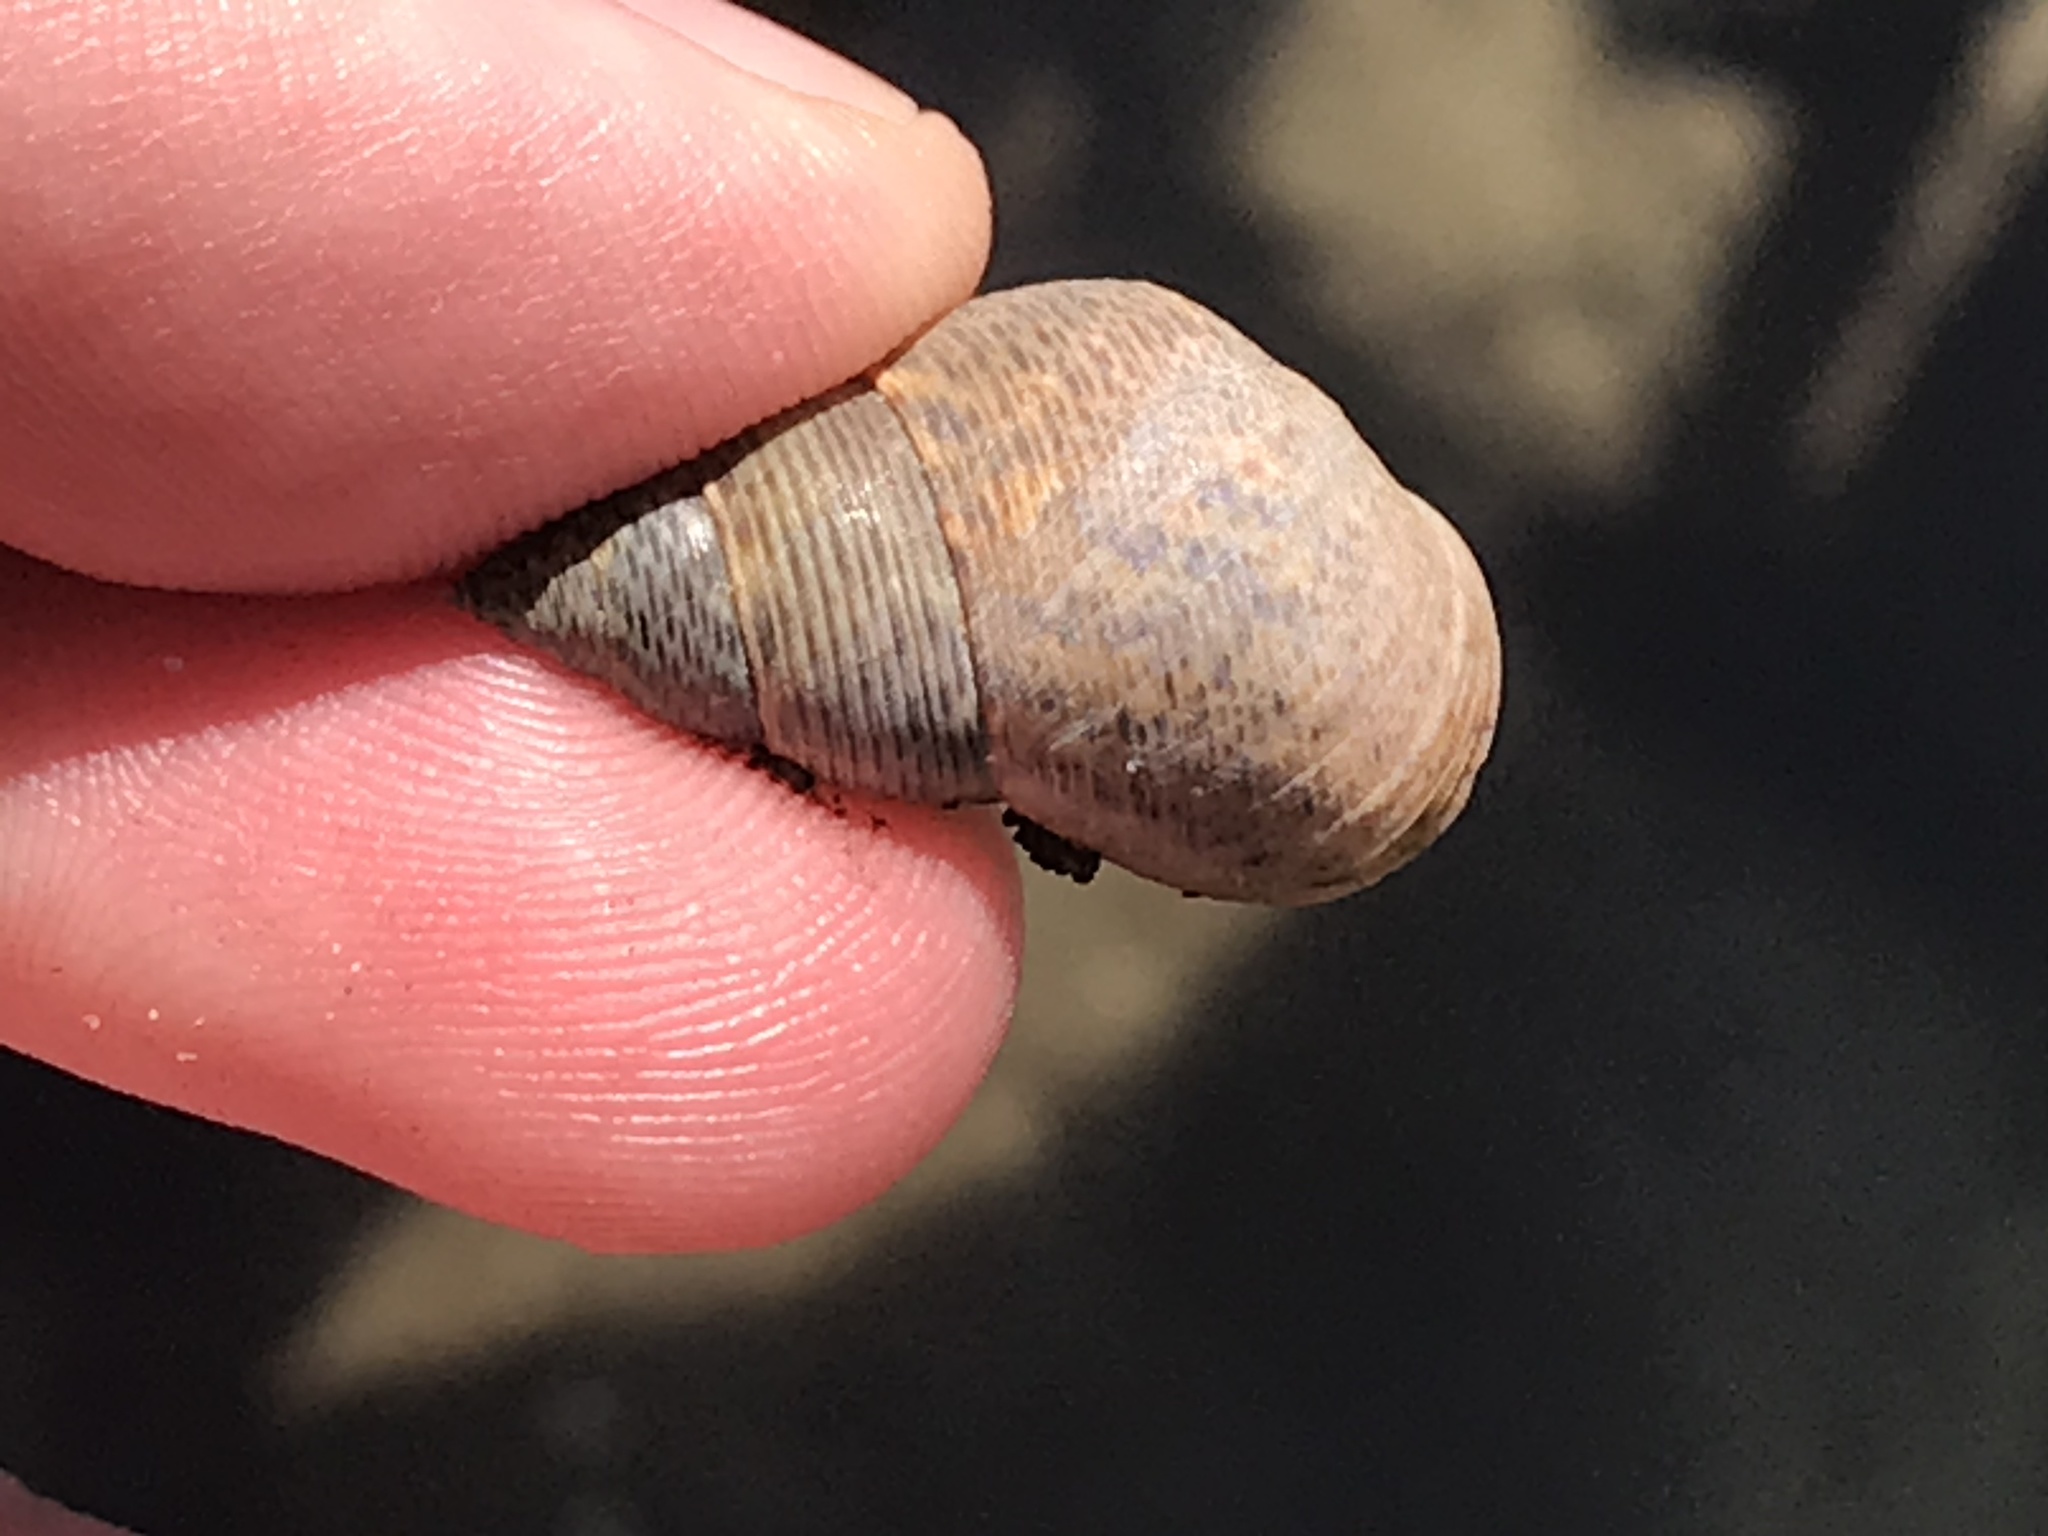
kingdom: Animalia
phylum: Mollusca
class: Gastropoda
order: Littorinimorpha
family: Littorinidae
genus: Littoraria
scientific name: Littoraria angulifera
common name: Mangrove periwinkle
